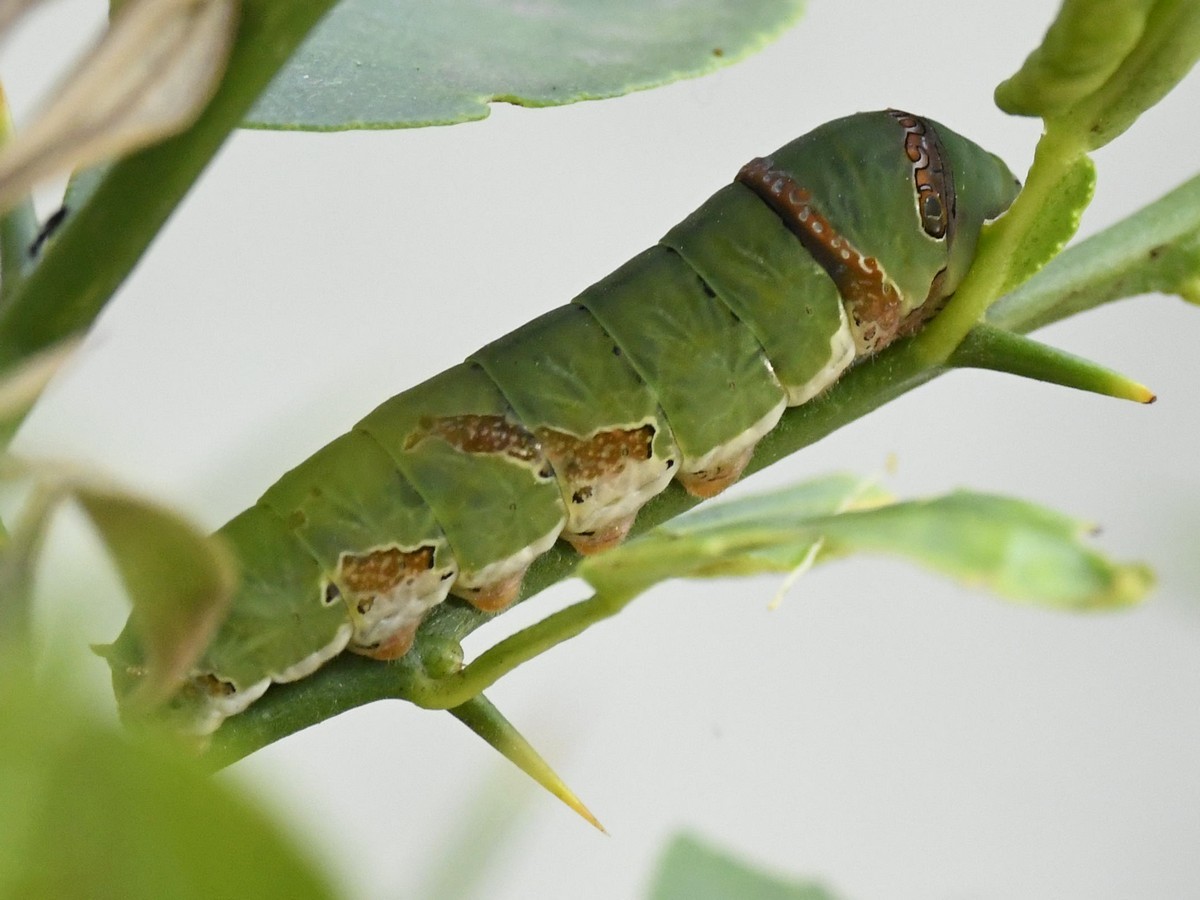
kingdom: Animalia
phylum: Arthropoda
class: Insecta
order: Lepidoptera
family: Papilionidae
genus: Papilio
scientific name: Papilio demoleus
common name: Lime butterfly
